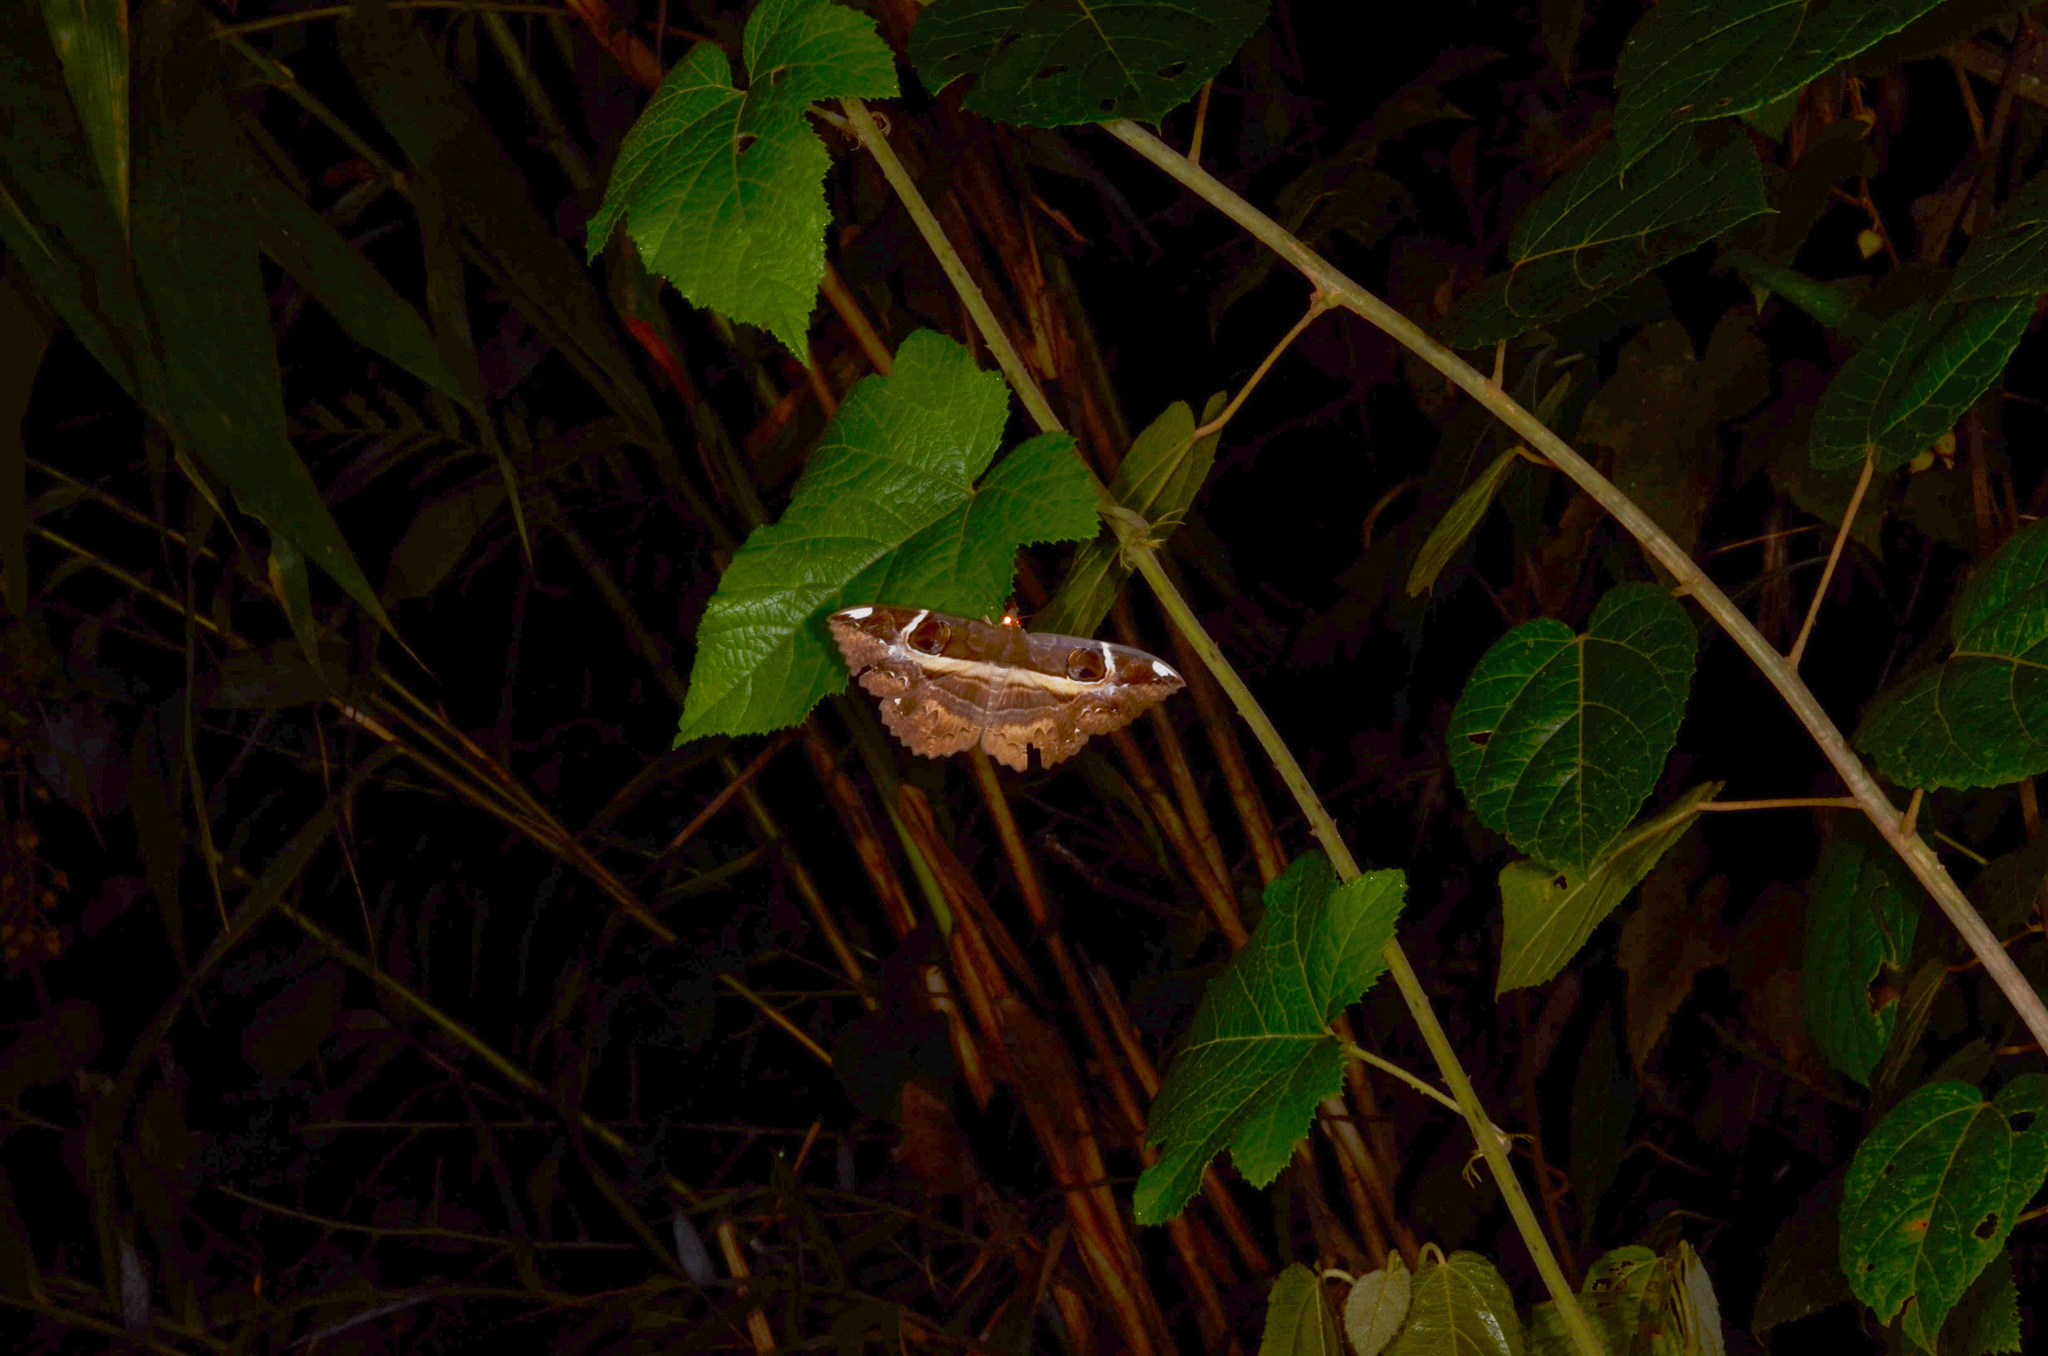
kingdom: Animalia
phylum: Arthropoda
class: Insecta
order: Lepidoptera
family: Erebidae
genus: Erebus
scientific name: Erebus ephesperis
